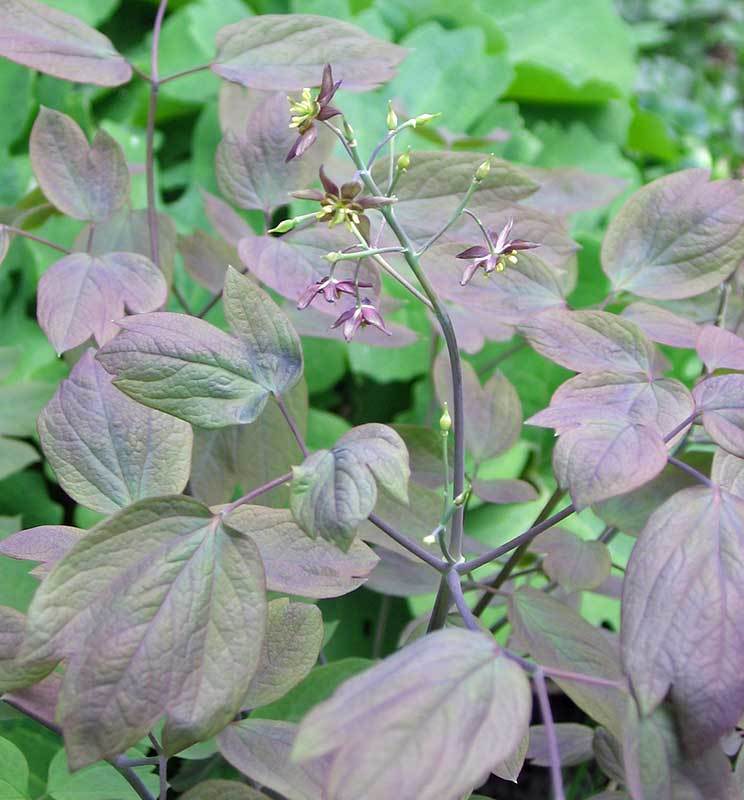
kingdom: Plantae
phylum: Tracheophyta
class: Magnoliopsida
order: Ranunculales
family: Berberidaceae
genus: Caulophyllum
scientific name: Caulophyllum giganteum
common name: Blue cohosh
